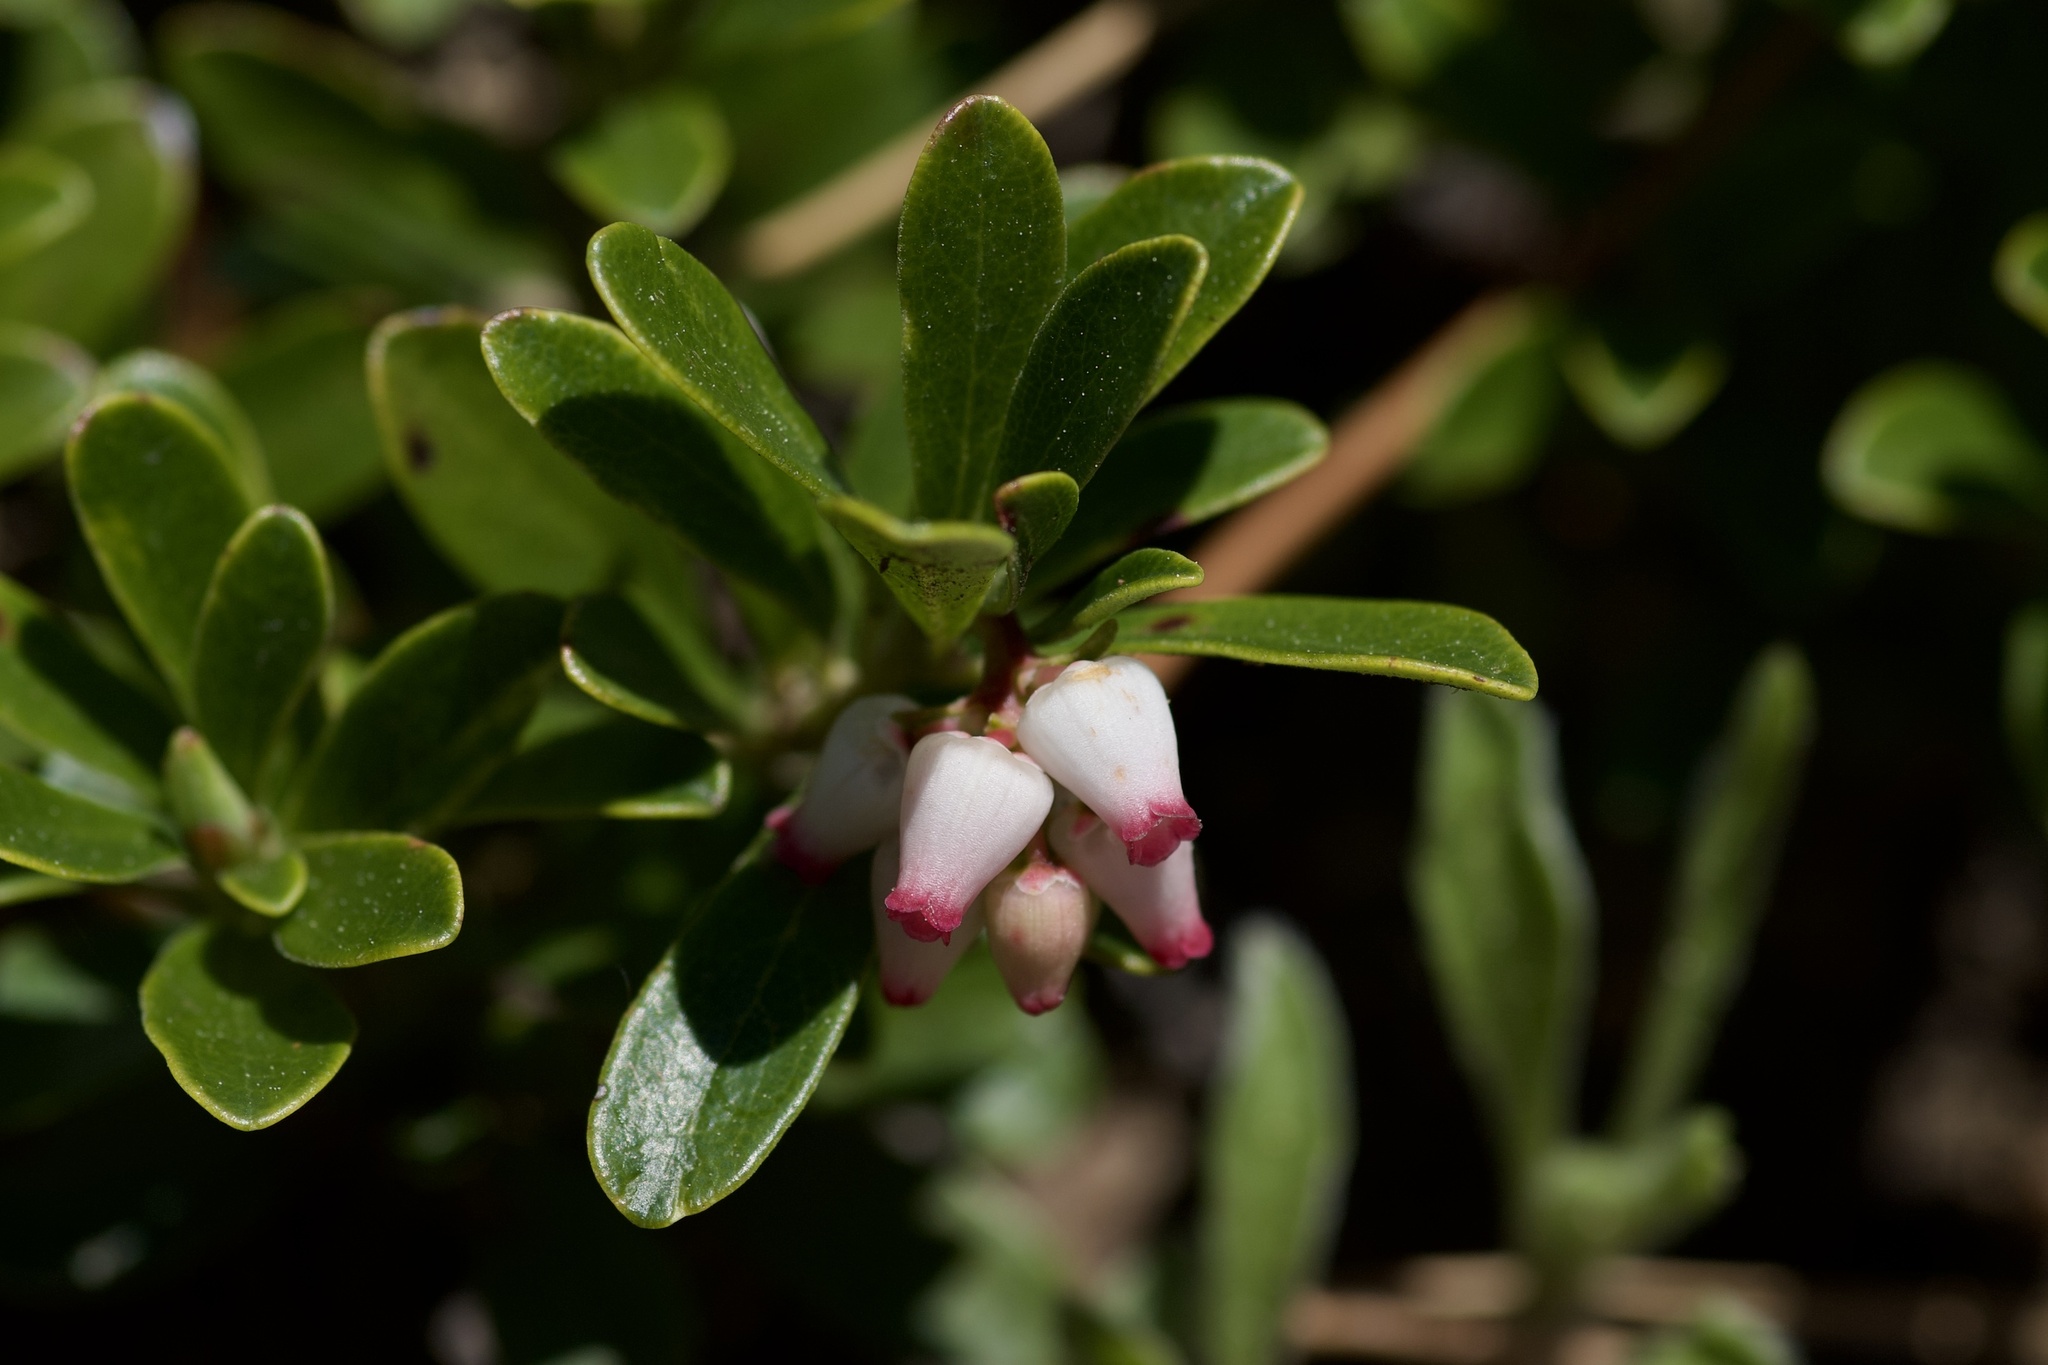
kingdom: Plantae
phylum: Tracheophyta
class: Magnoliopsida
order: Ericales
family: Ericaceae
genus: Arctostaphylos
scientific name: Arctostaphylos uva-ursi
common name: Bearberry
